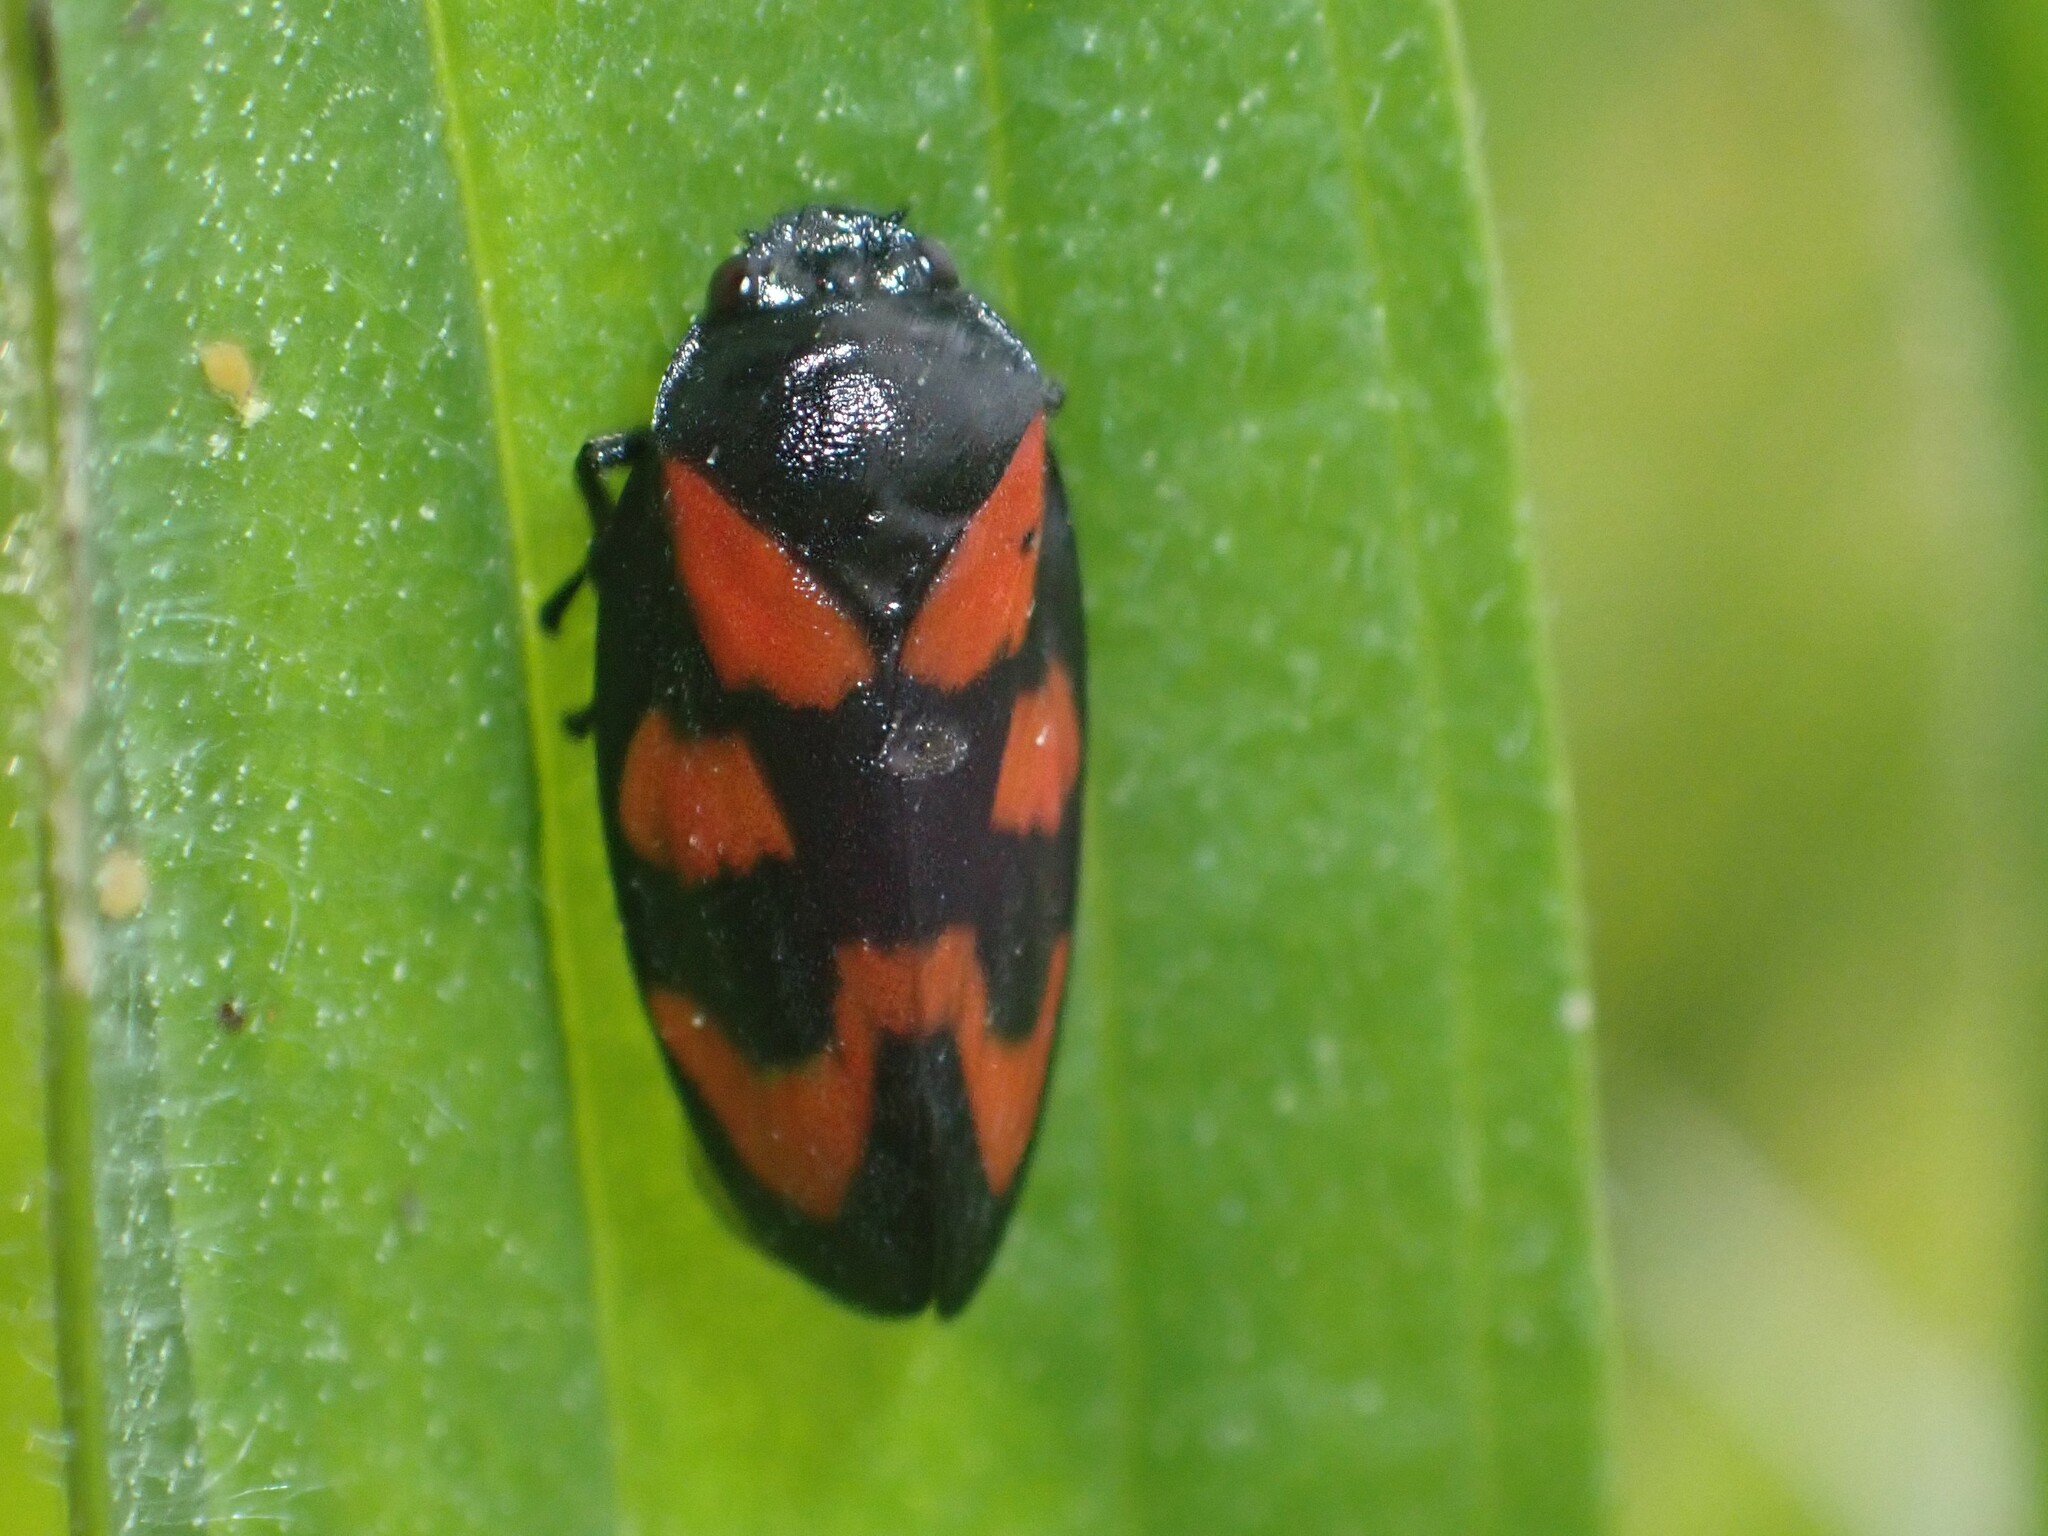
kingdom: Animalia
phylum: Arthropoda
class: Insecta
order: Hemiptera
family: Cercopidae
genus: Cercopis
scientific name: Cercopis vulnerata
